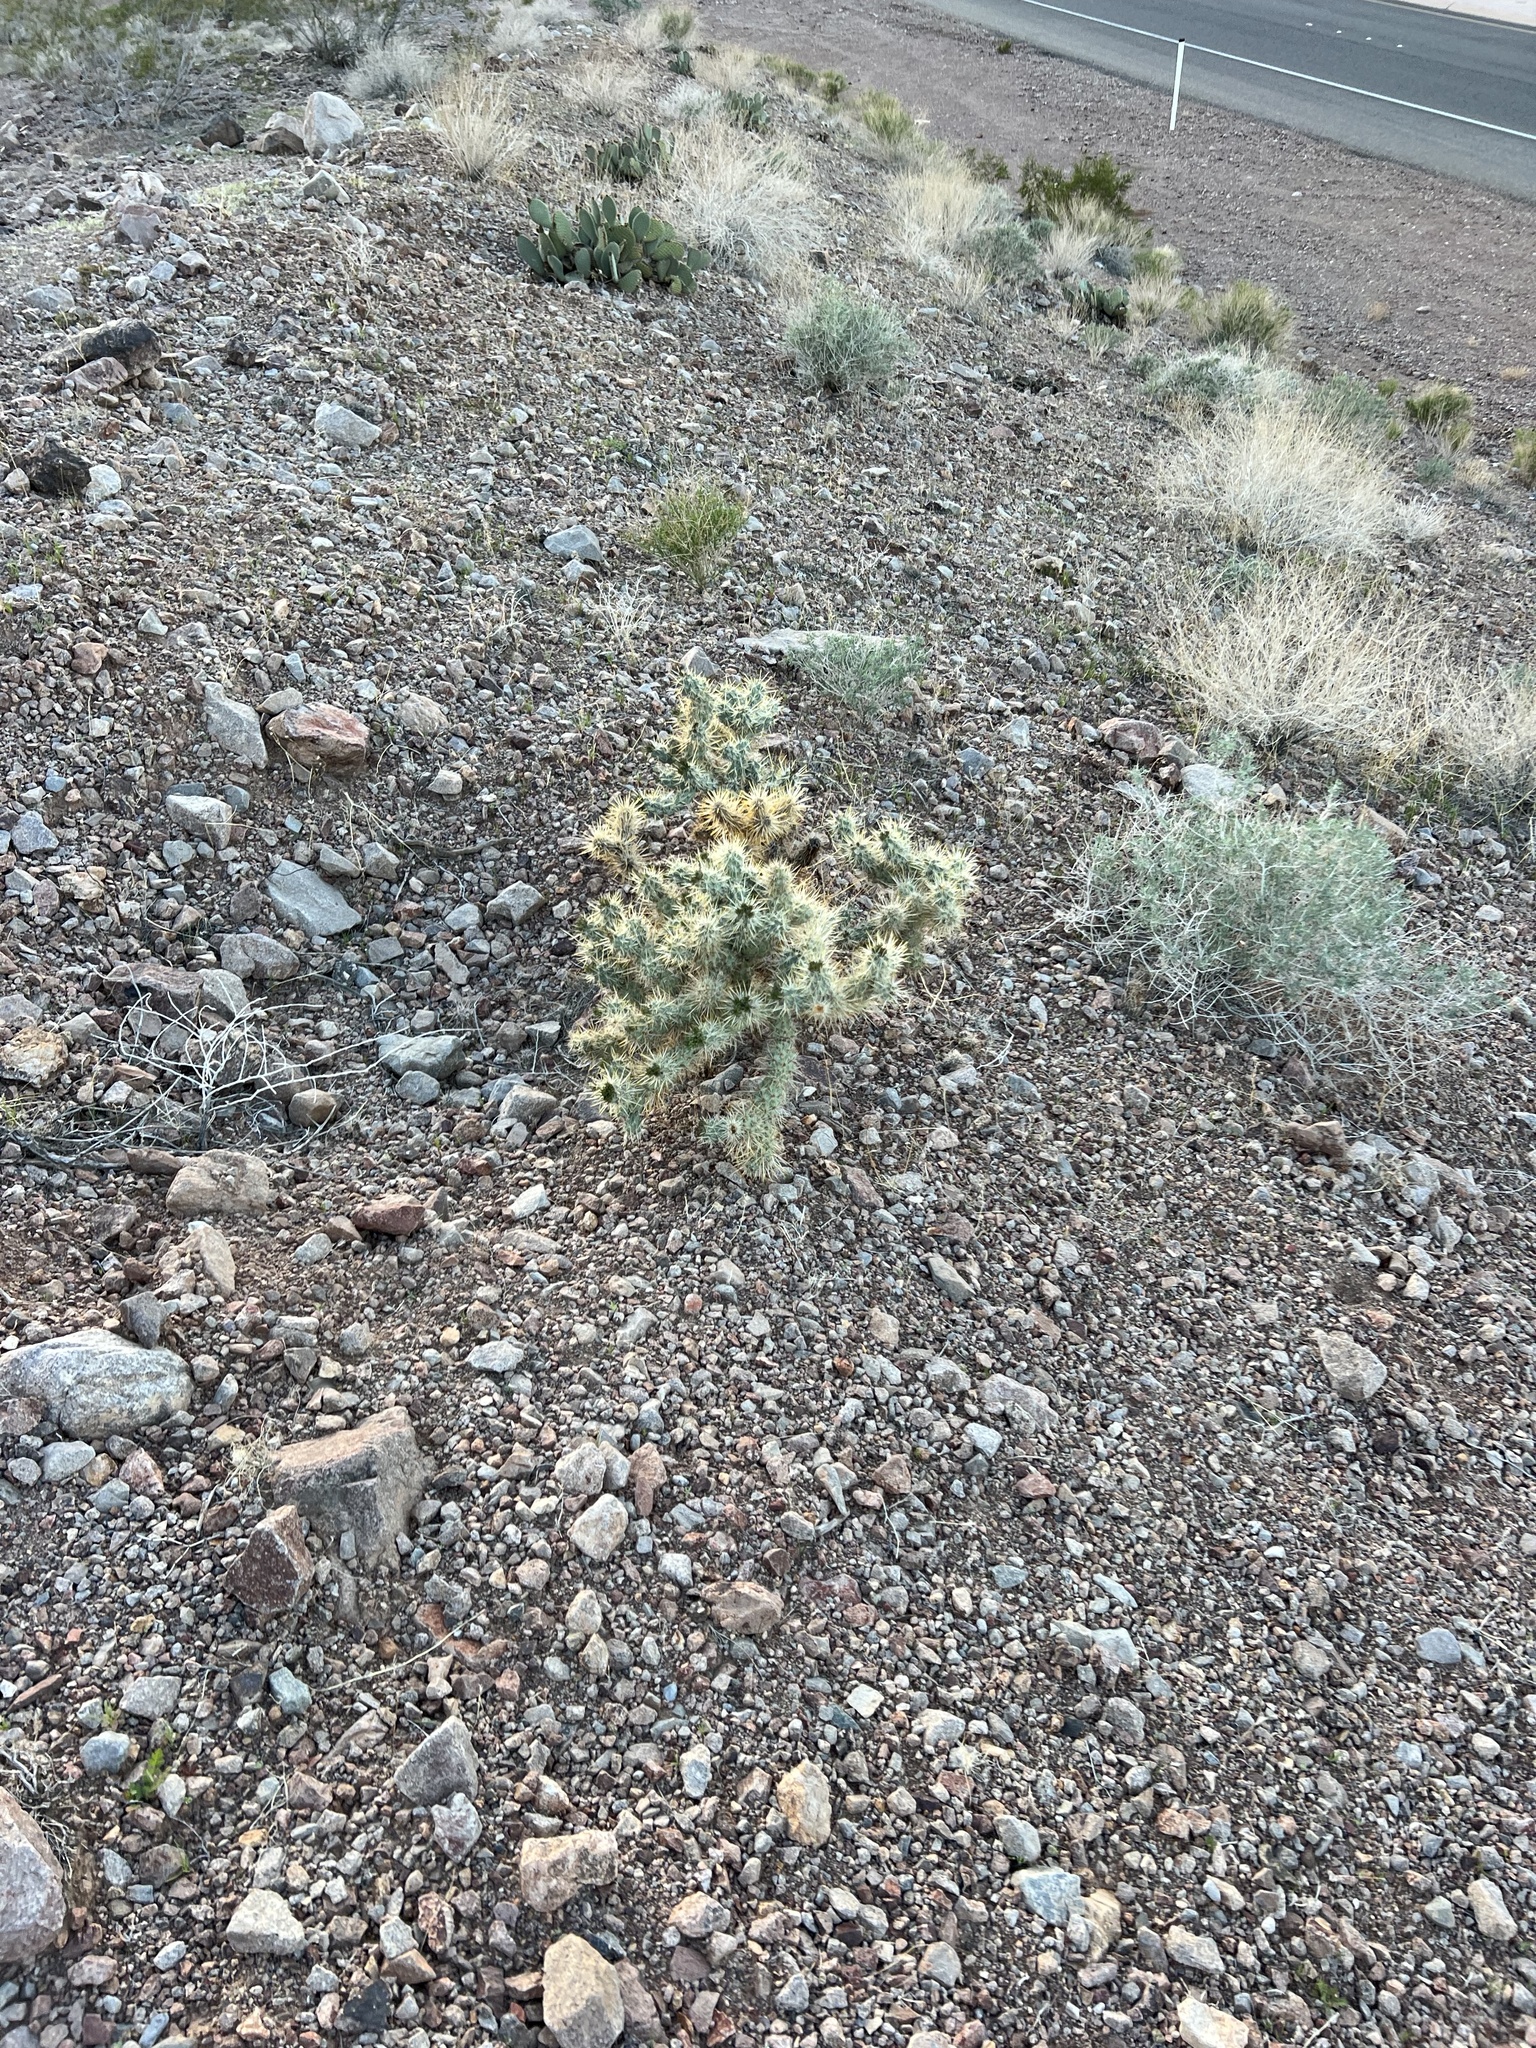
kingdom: Plantae
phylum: Tracheophyta
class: Magnoliopsida
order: Caryophyllales
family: Cactaceae
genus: Cylindropuntia
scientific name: Cylindropuntia echinocarpa
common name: Ground cholla
